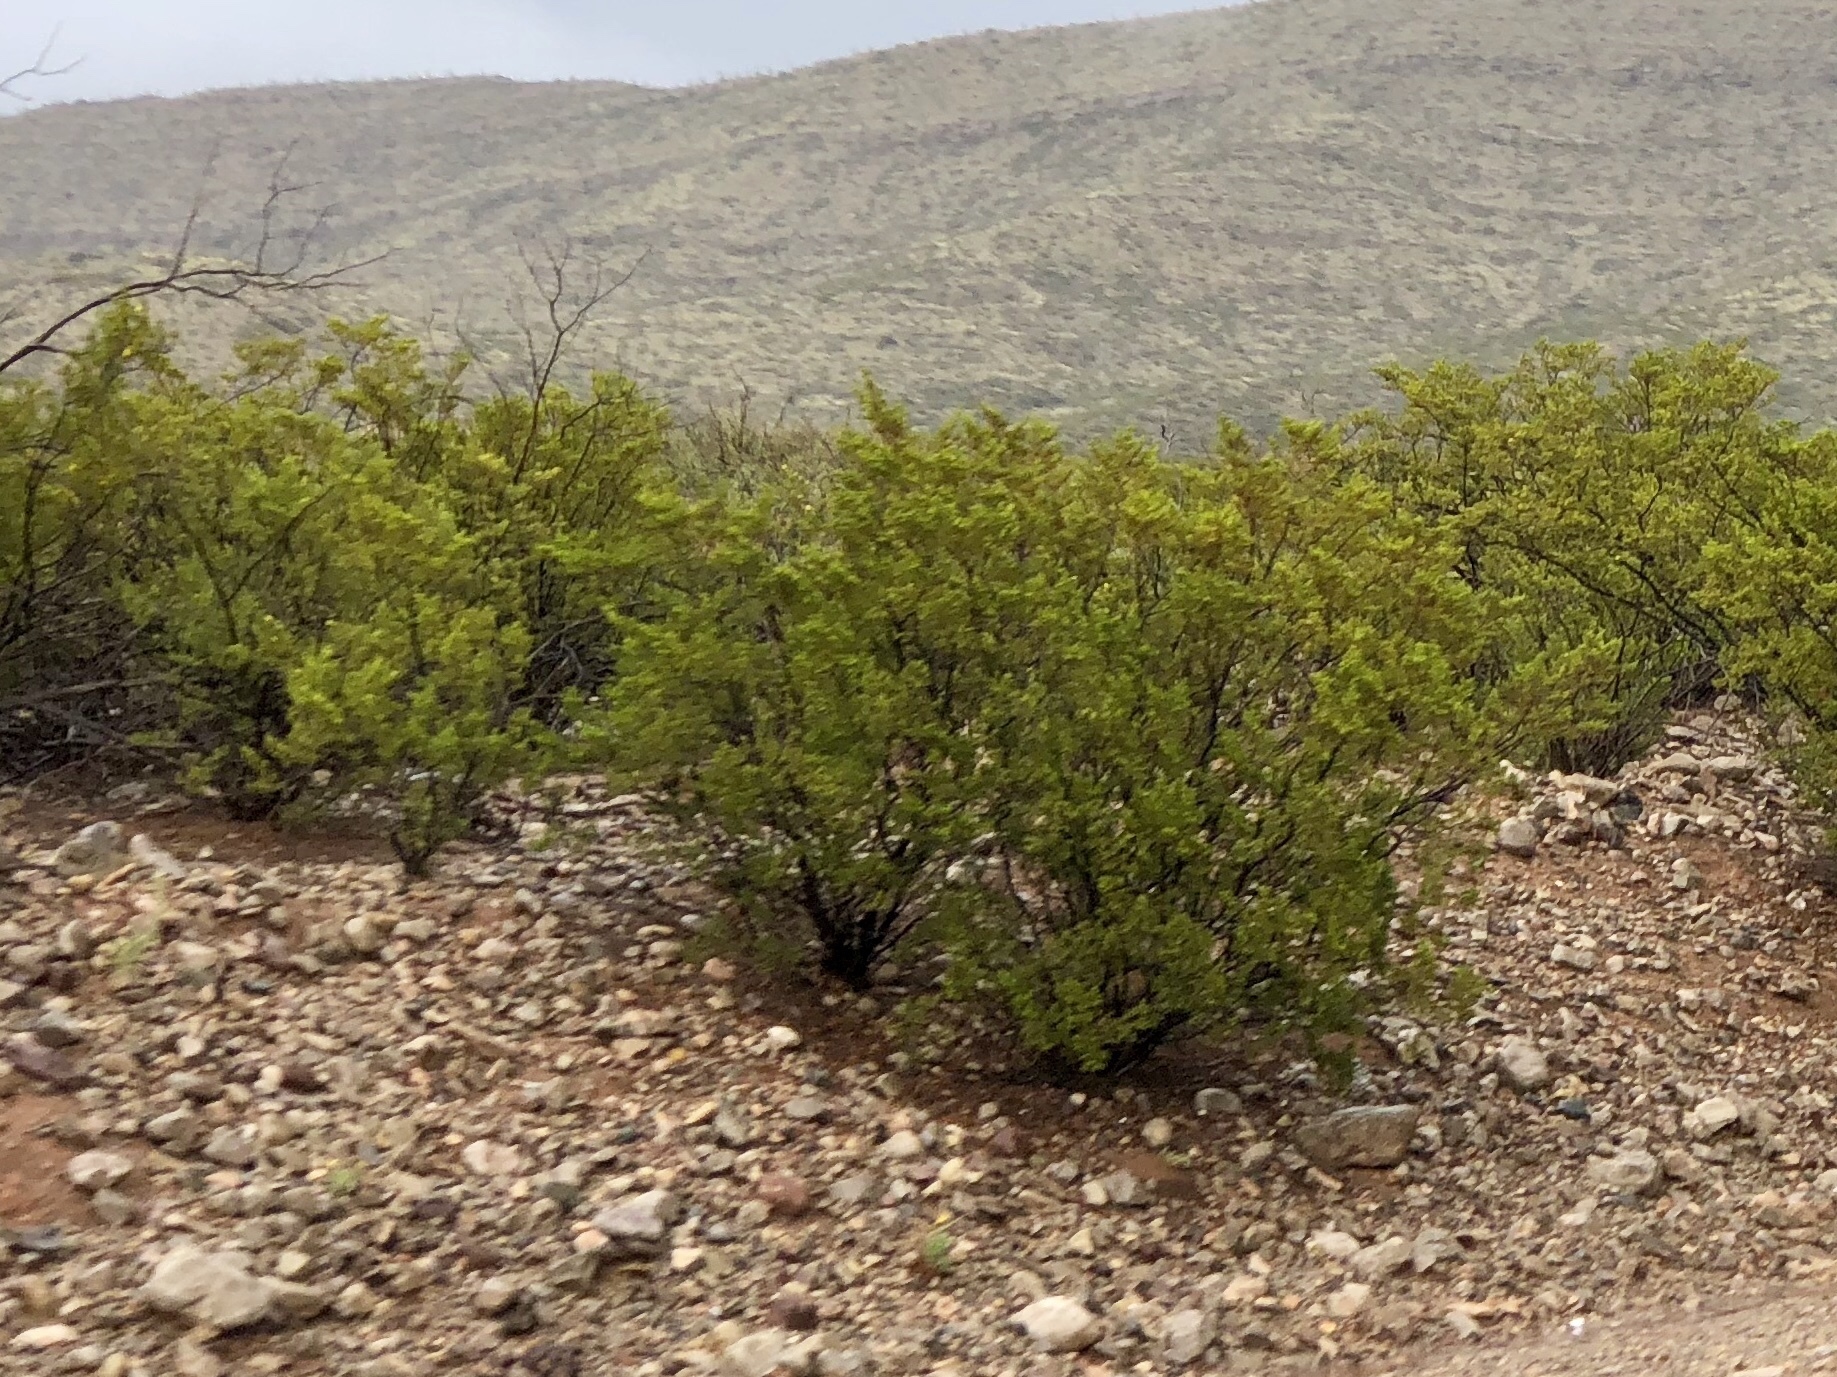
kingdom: Plantae
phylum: Tracheophyta
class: Magnoliopsida
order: Zygophyllales
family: Zygophyllaceae
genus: Larrea
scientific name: Larrea tridentata
